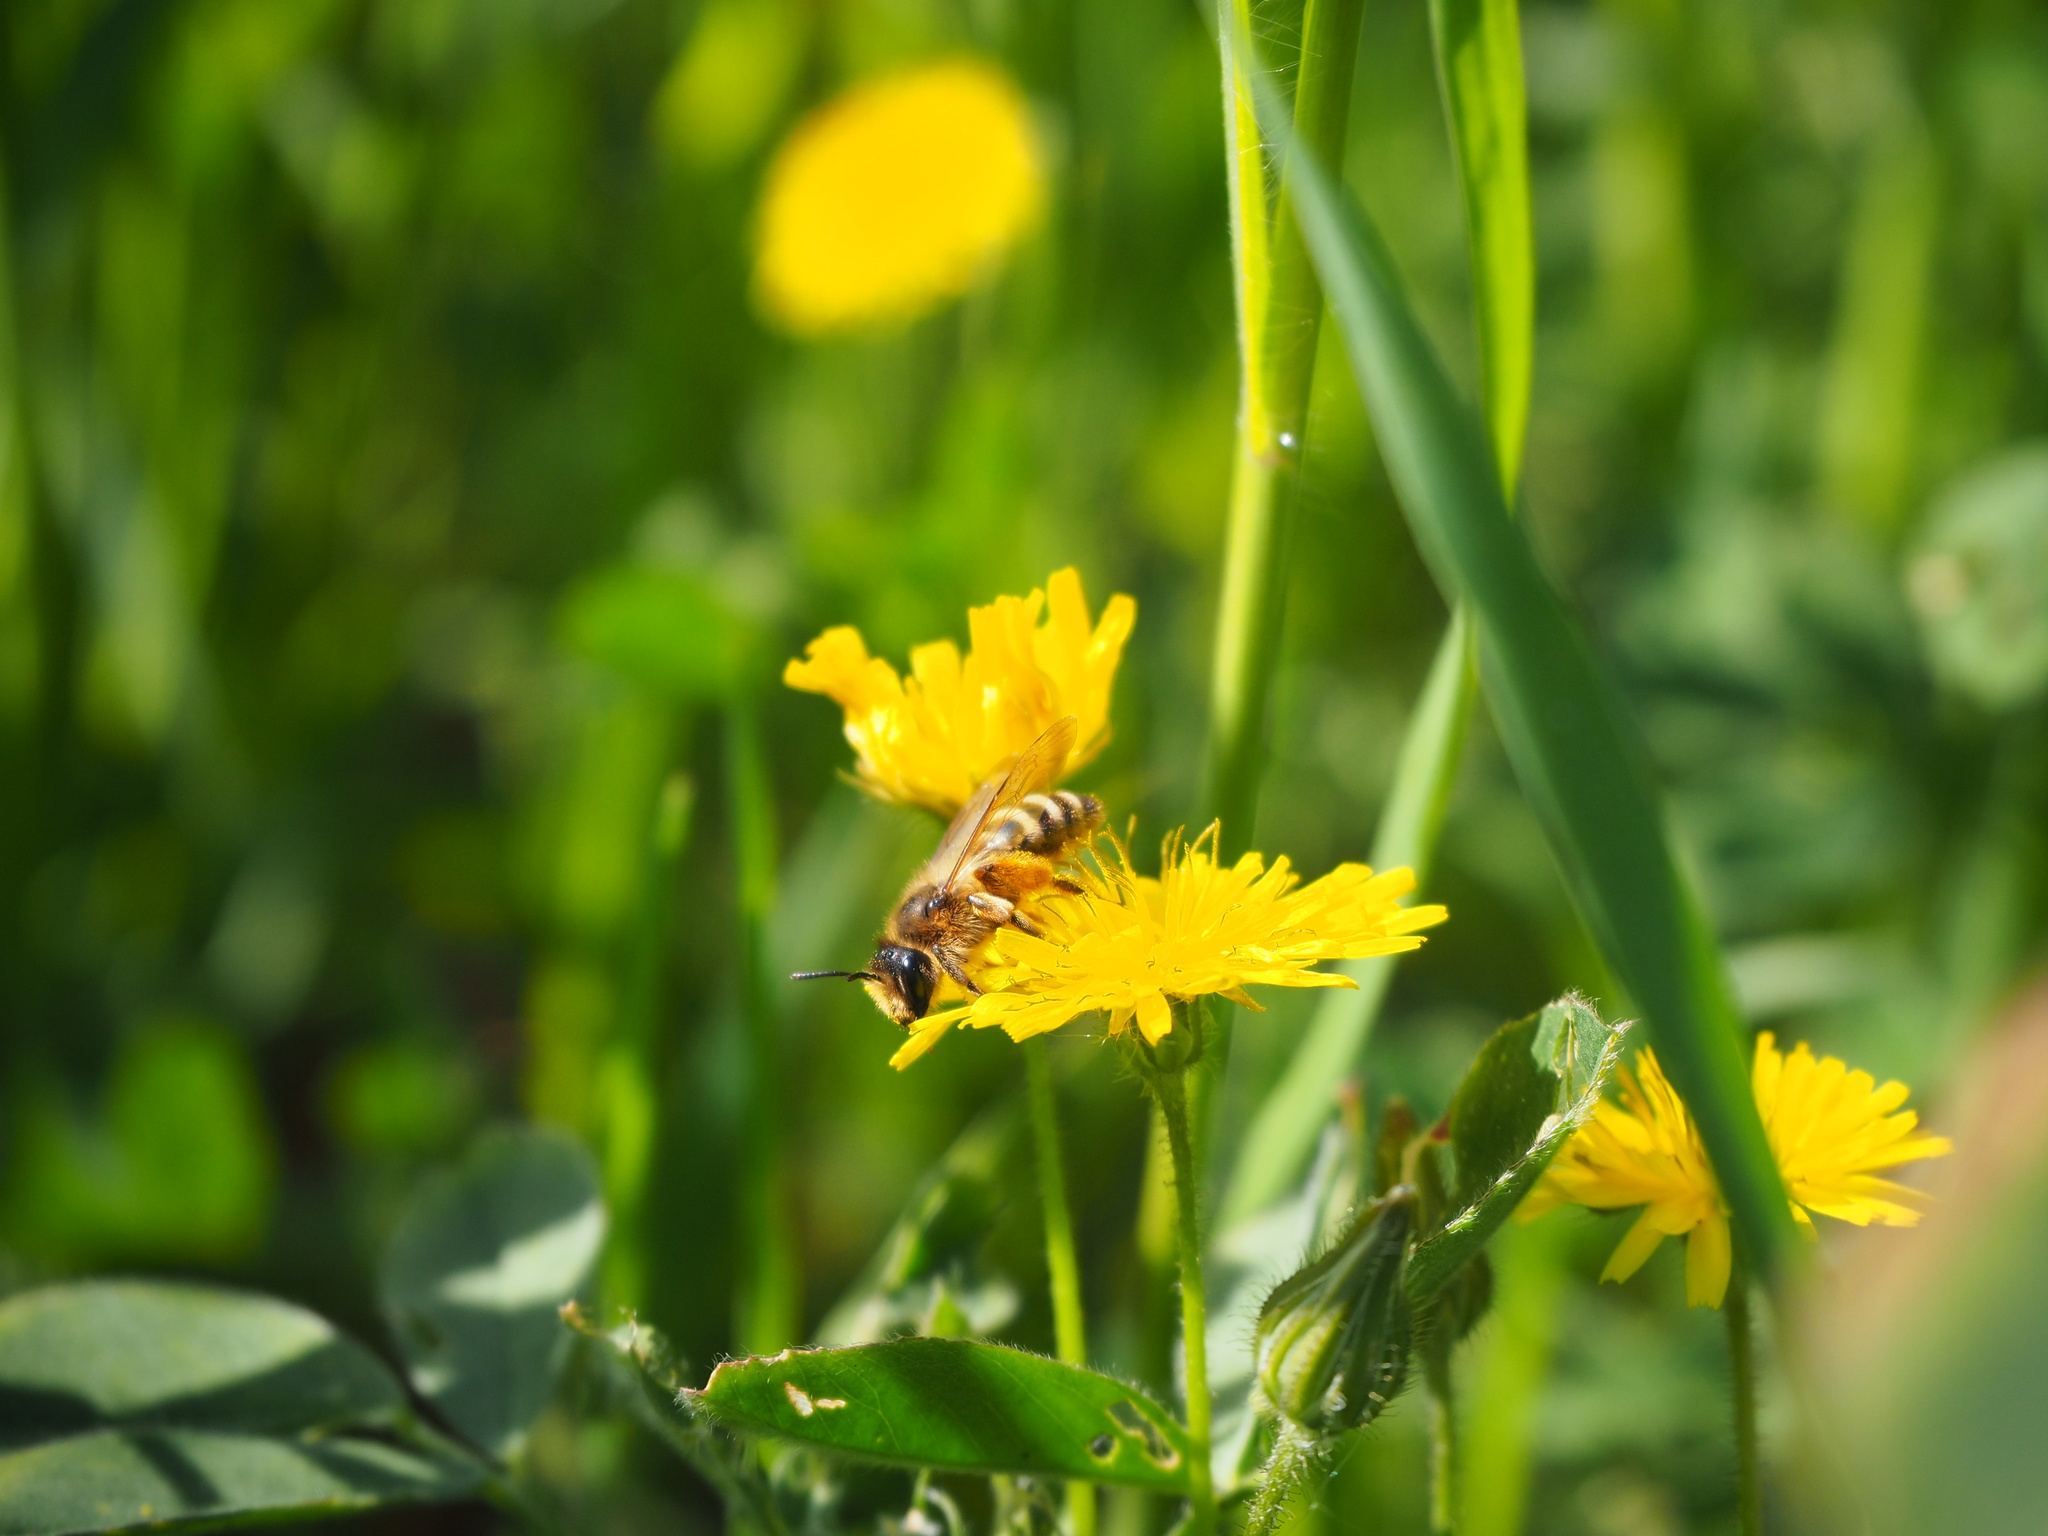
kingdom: Animalia
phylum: Arthropoda
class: Insecta
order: Hymenoptera
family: Andrenidae
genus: Andrena
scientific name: Andrena flavipes
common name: Yellow-legged mining bee
